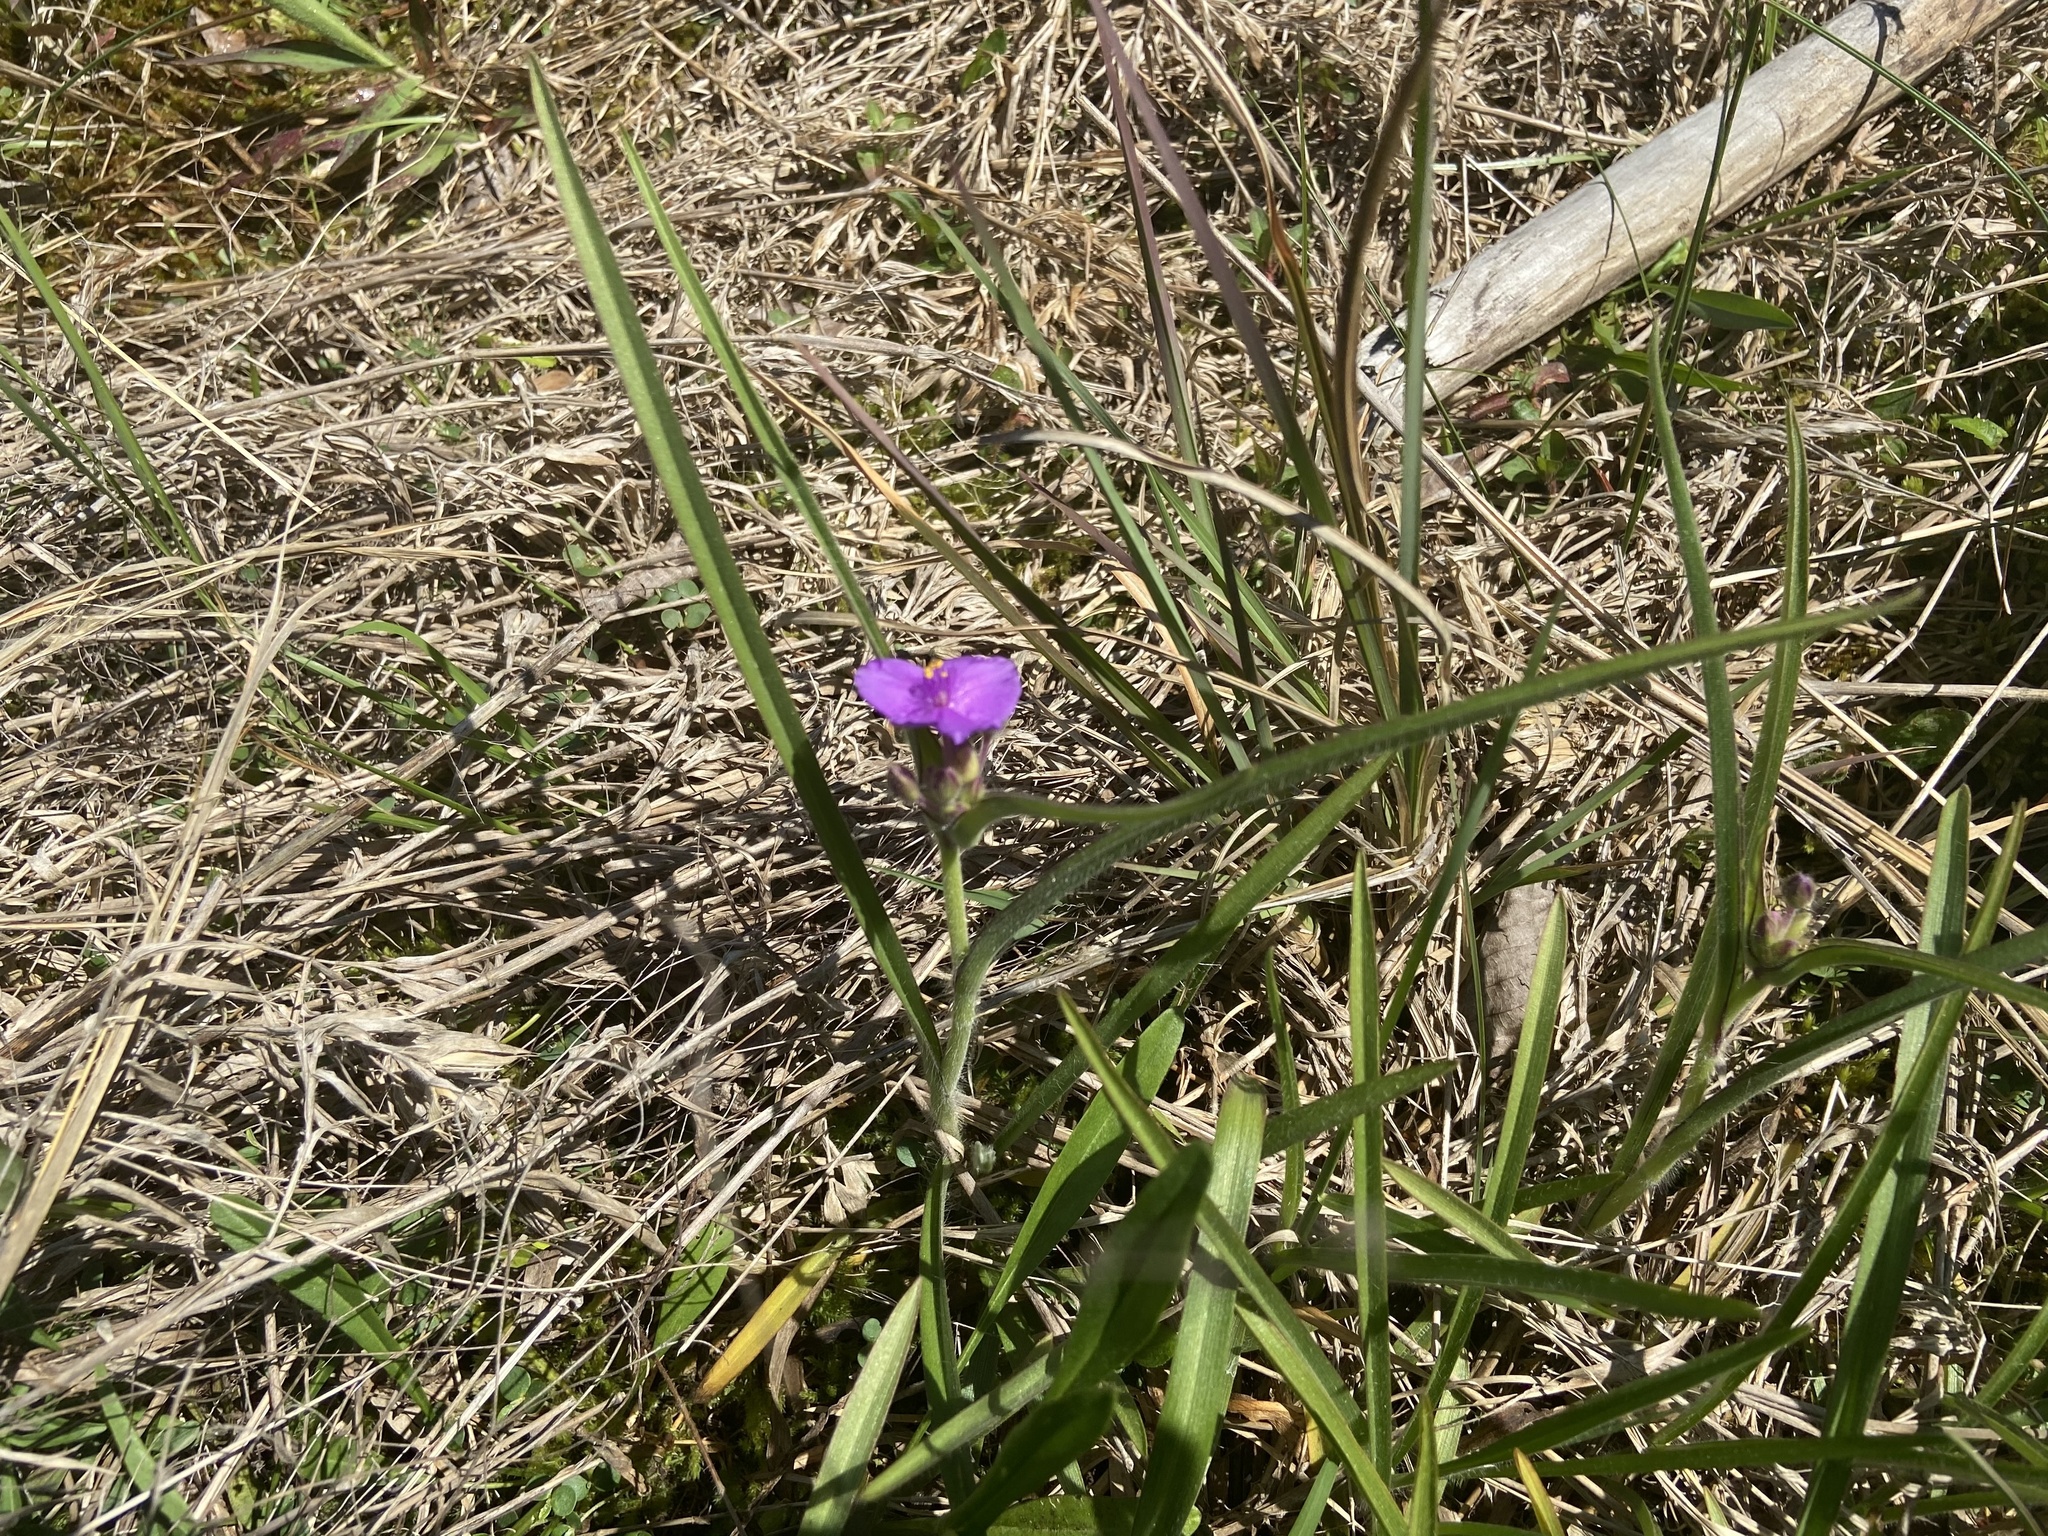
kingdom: Plantae
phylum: Tracheophyta
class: Liliopsida
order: Commelinales
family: Commelinaceae
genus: Tradescantia
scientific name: Tradescantia hirsuticaulis
